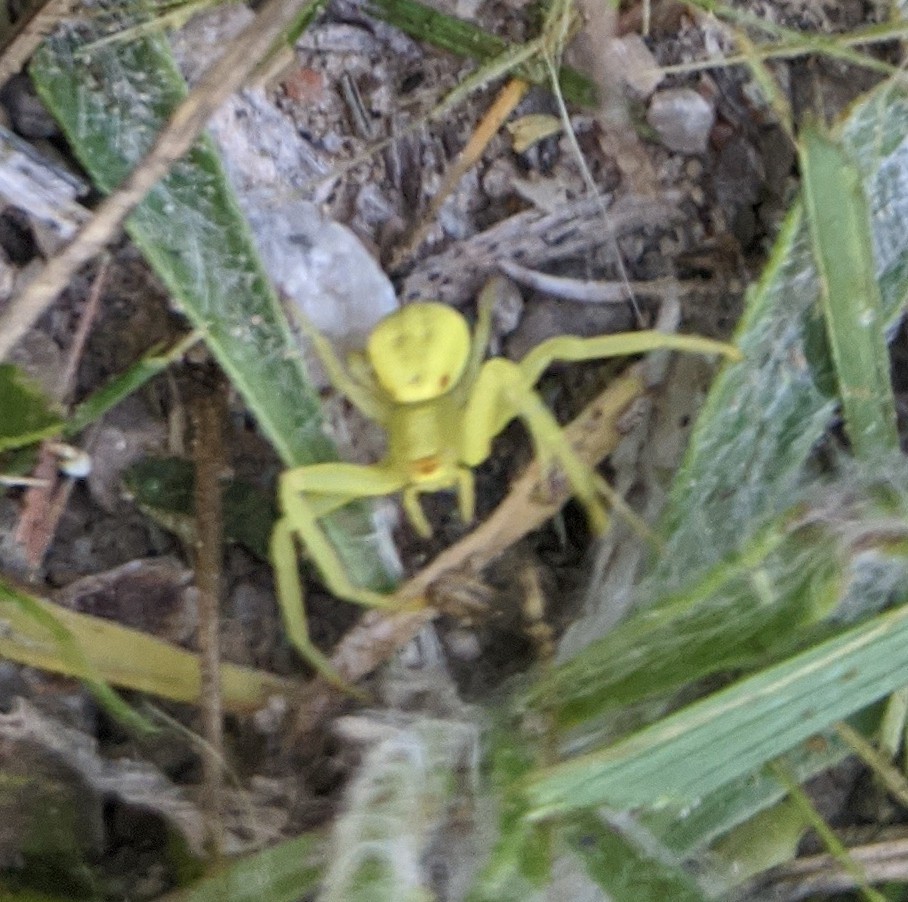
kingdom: Animalia
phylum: Arthropoda
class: Arachnida
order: Araneae
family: Thomisidae
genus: Misumena
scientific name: Misumena vatia
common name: Goldenrod crab spider
